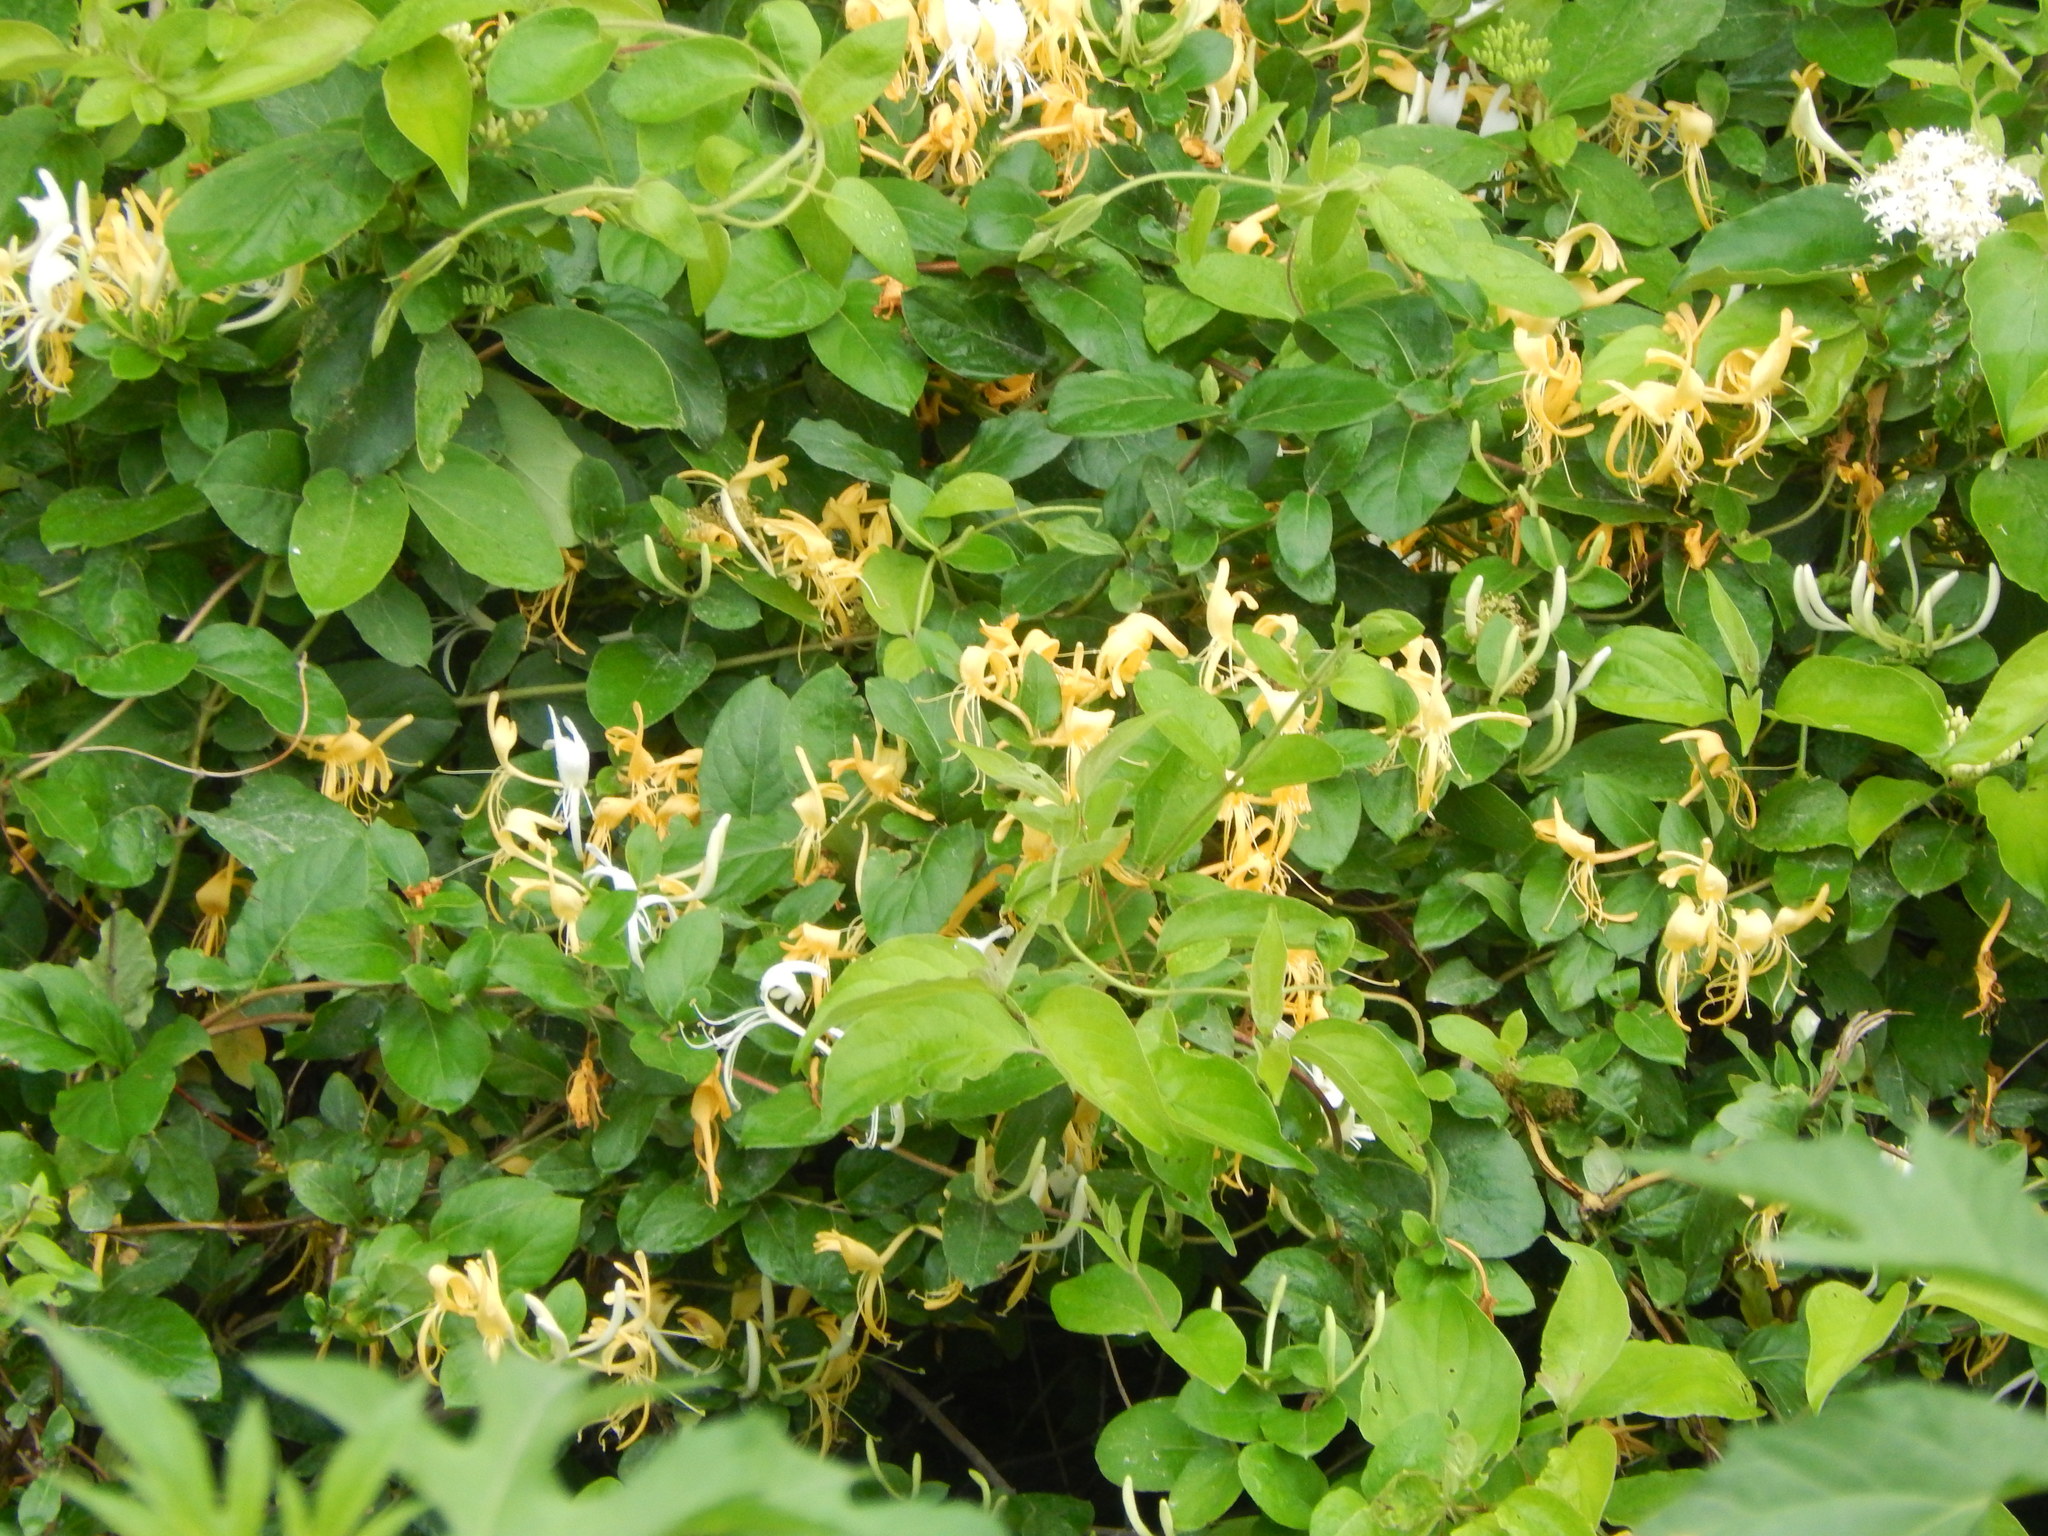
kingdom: Plantae
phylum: Tracheophyta
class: Magnoliopsida
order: Dipsacales
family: Caprifoliaceae
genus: Lonicera
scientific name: Lonicera japonica
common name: Japanese honeysuckle
